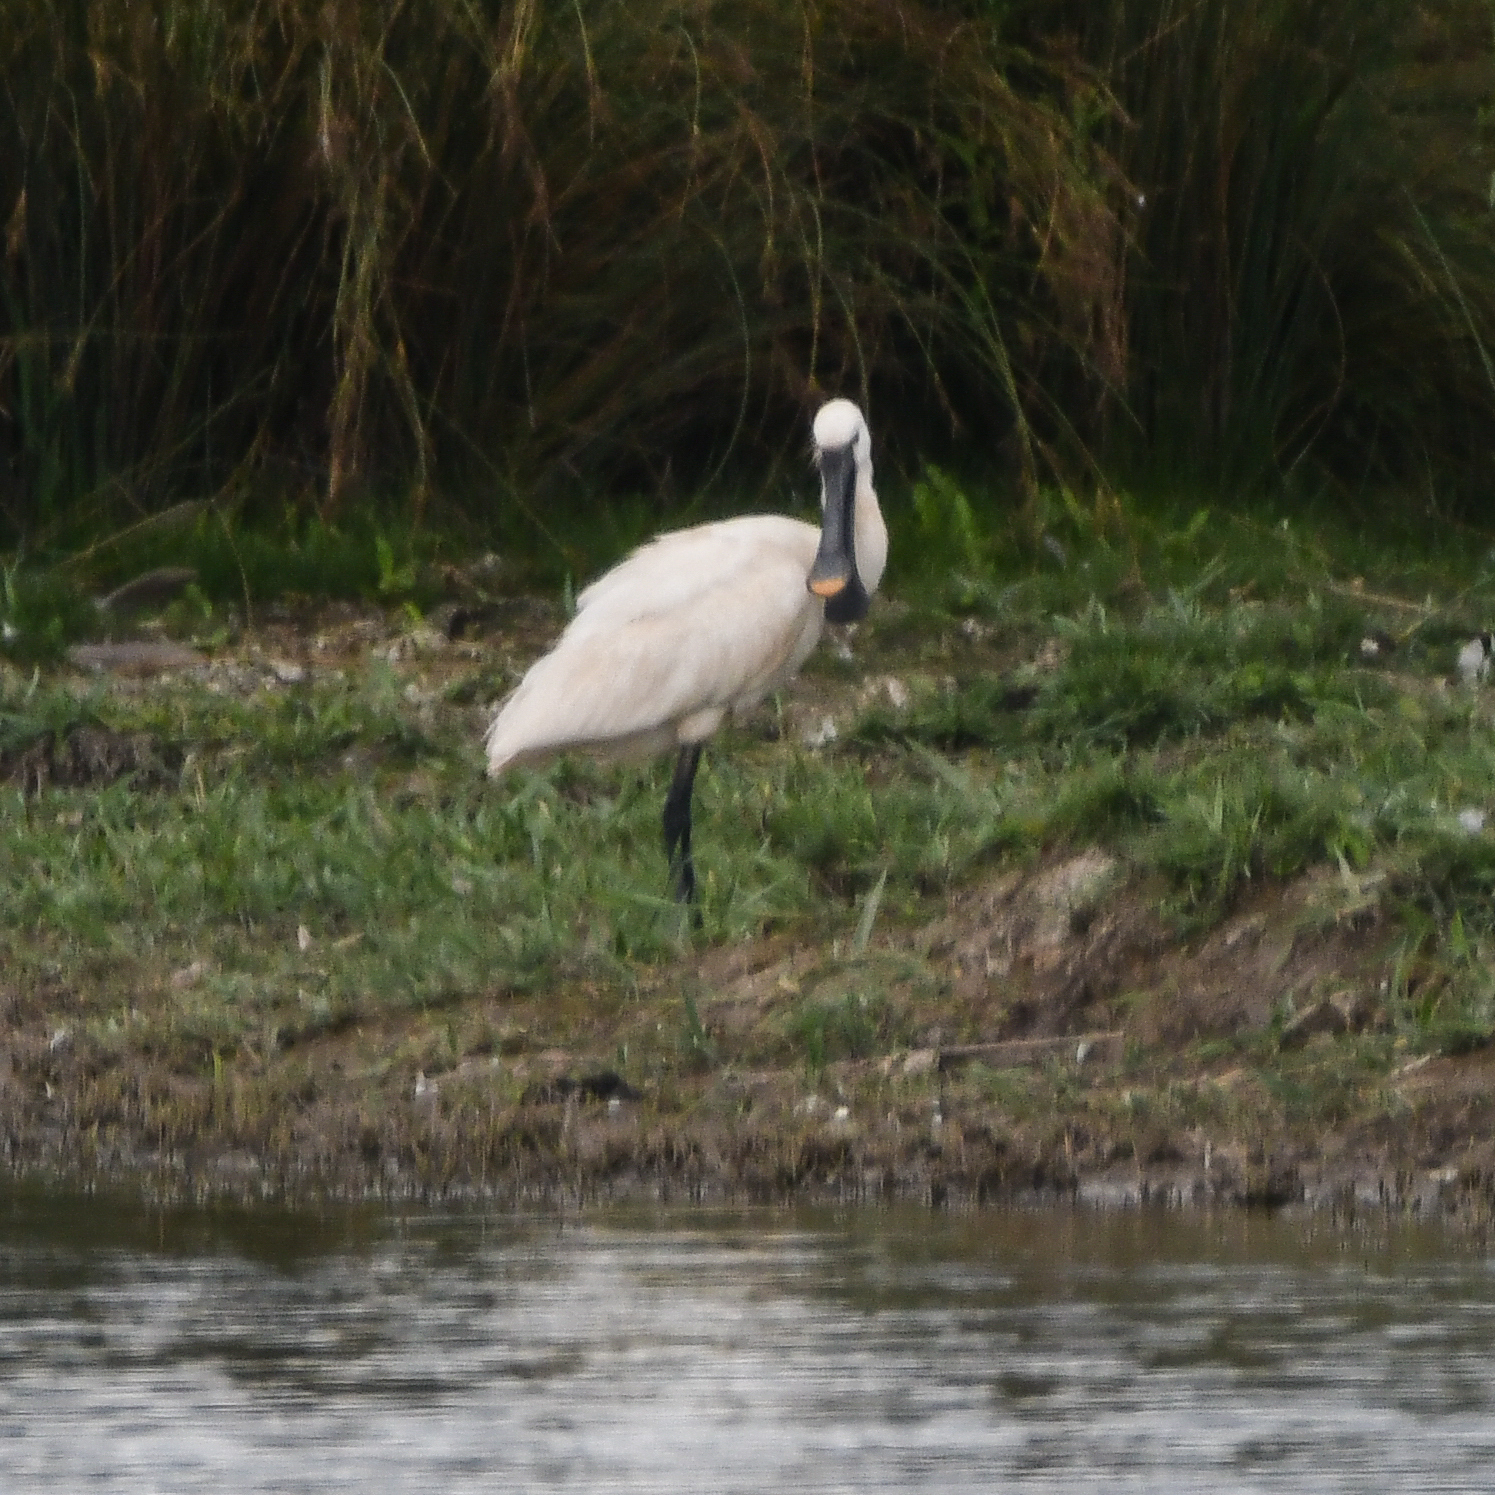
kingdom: Animalia
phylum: Chordata
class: Aves
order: Pelecaniformes
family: Threskiornithidae
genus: Platalea
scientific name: Platalea leucorodia
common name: Eurasian spoonbill
